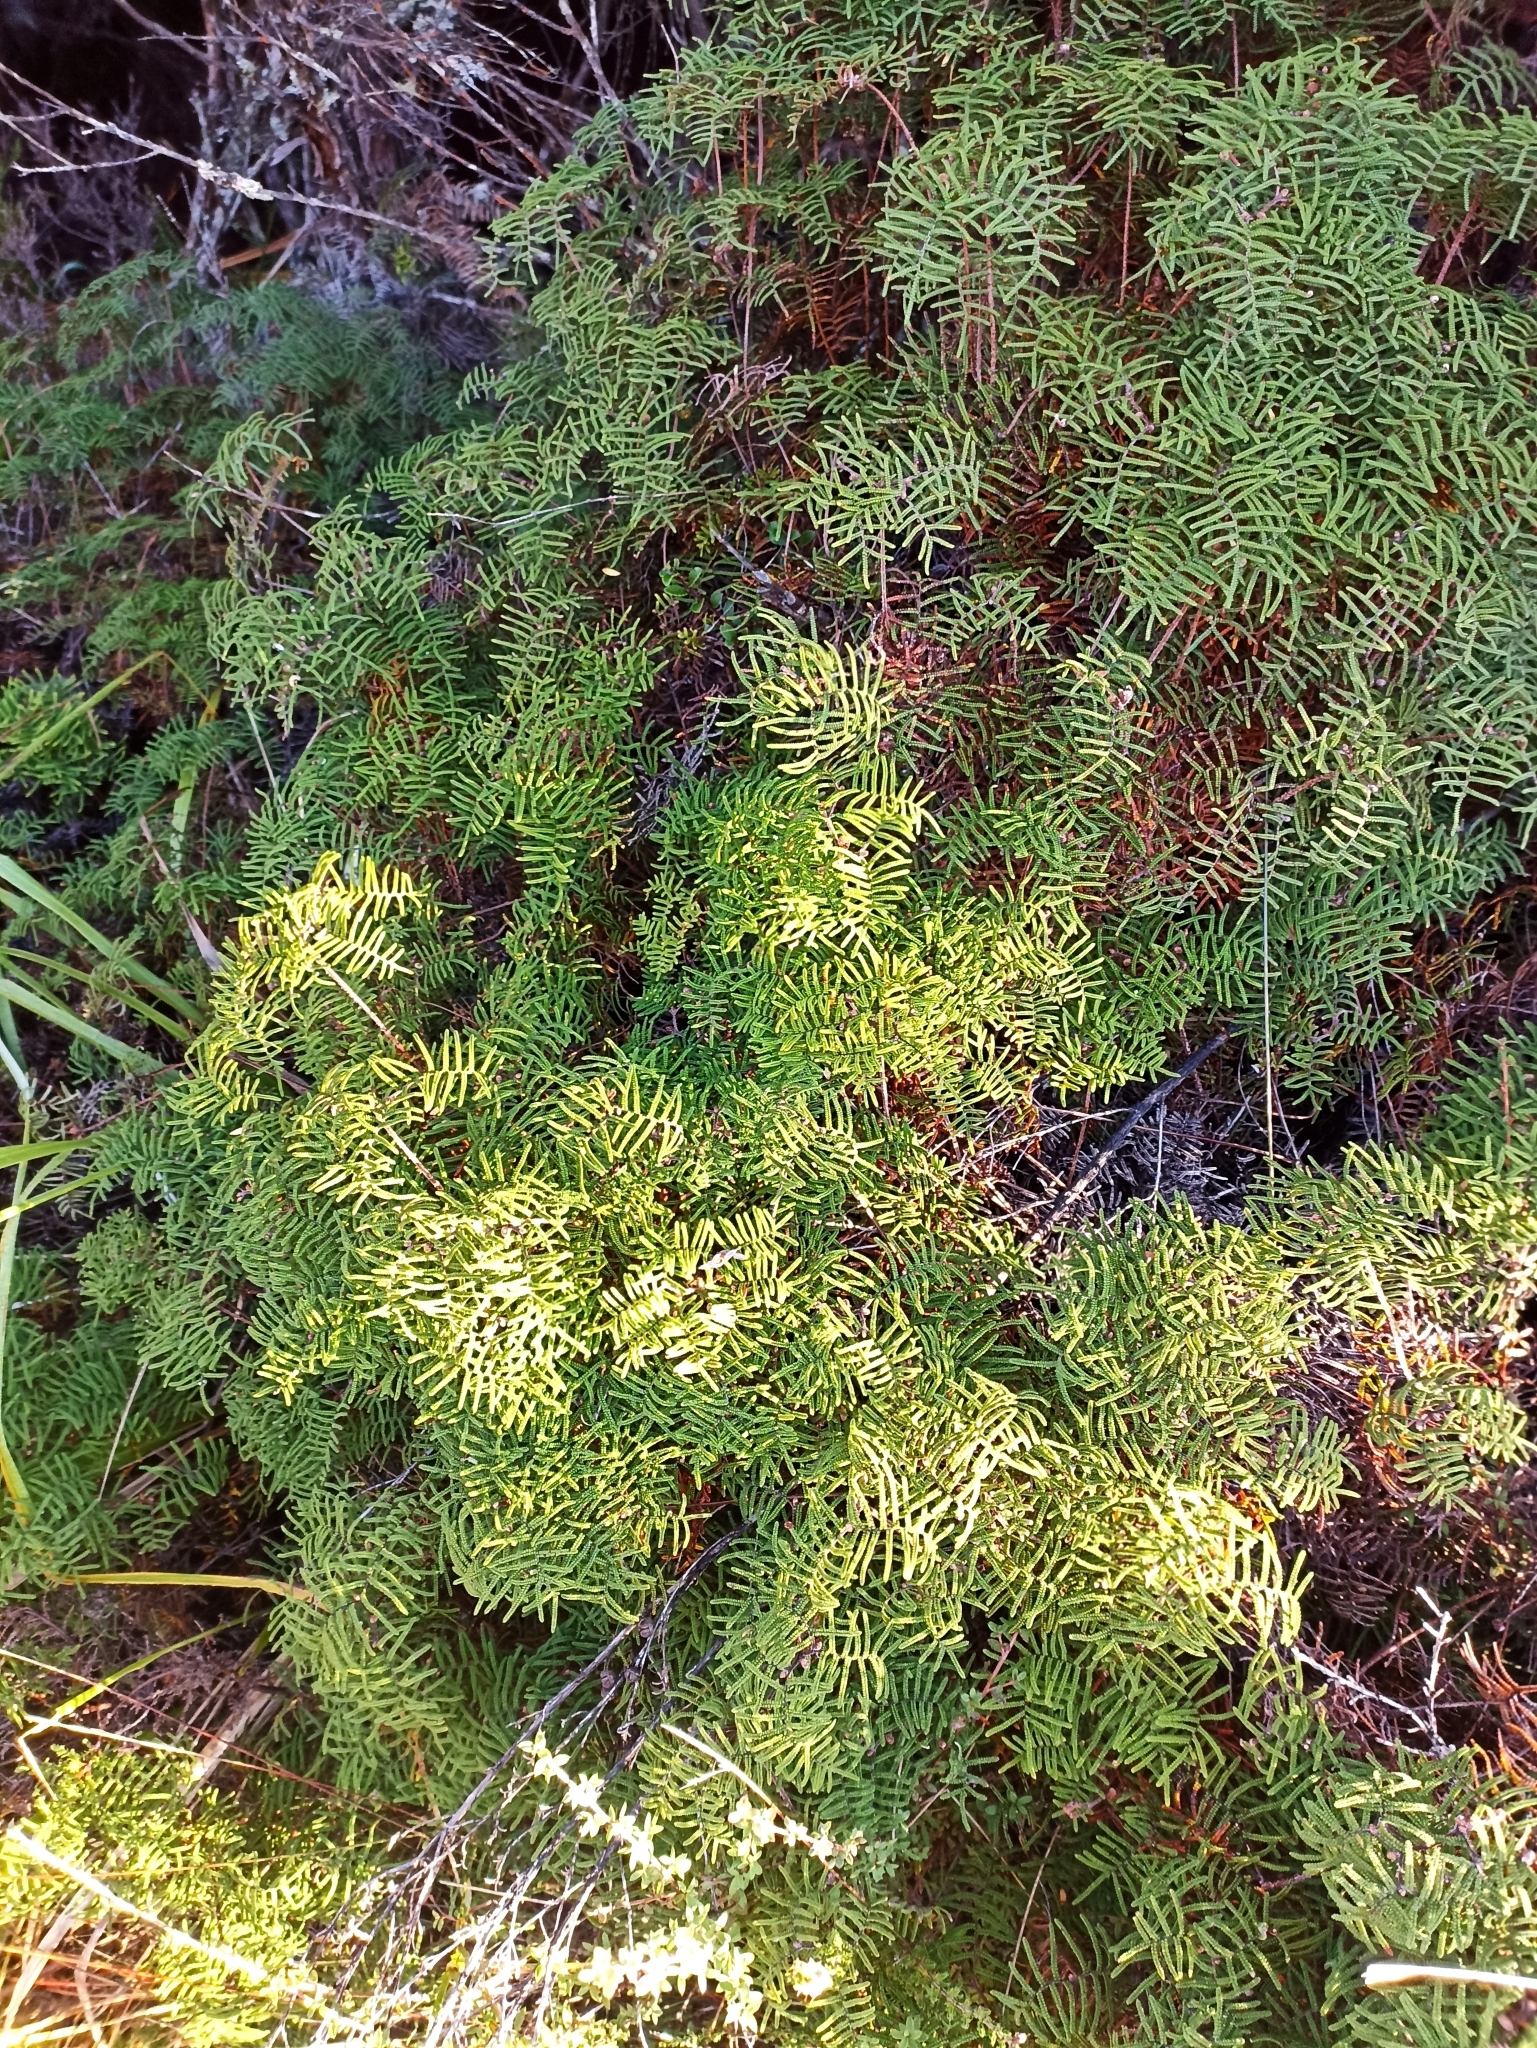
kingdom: Plantae
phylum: Tracheophyta
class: Polypodiopsida
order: Gleicheniales
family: Gleicheniaceae
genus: Gleichenia
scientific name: Gleichenia alpina
